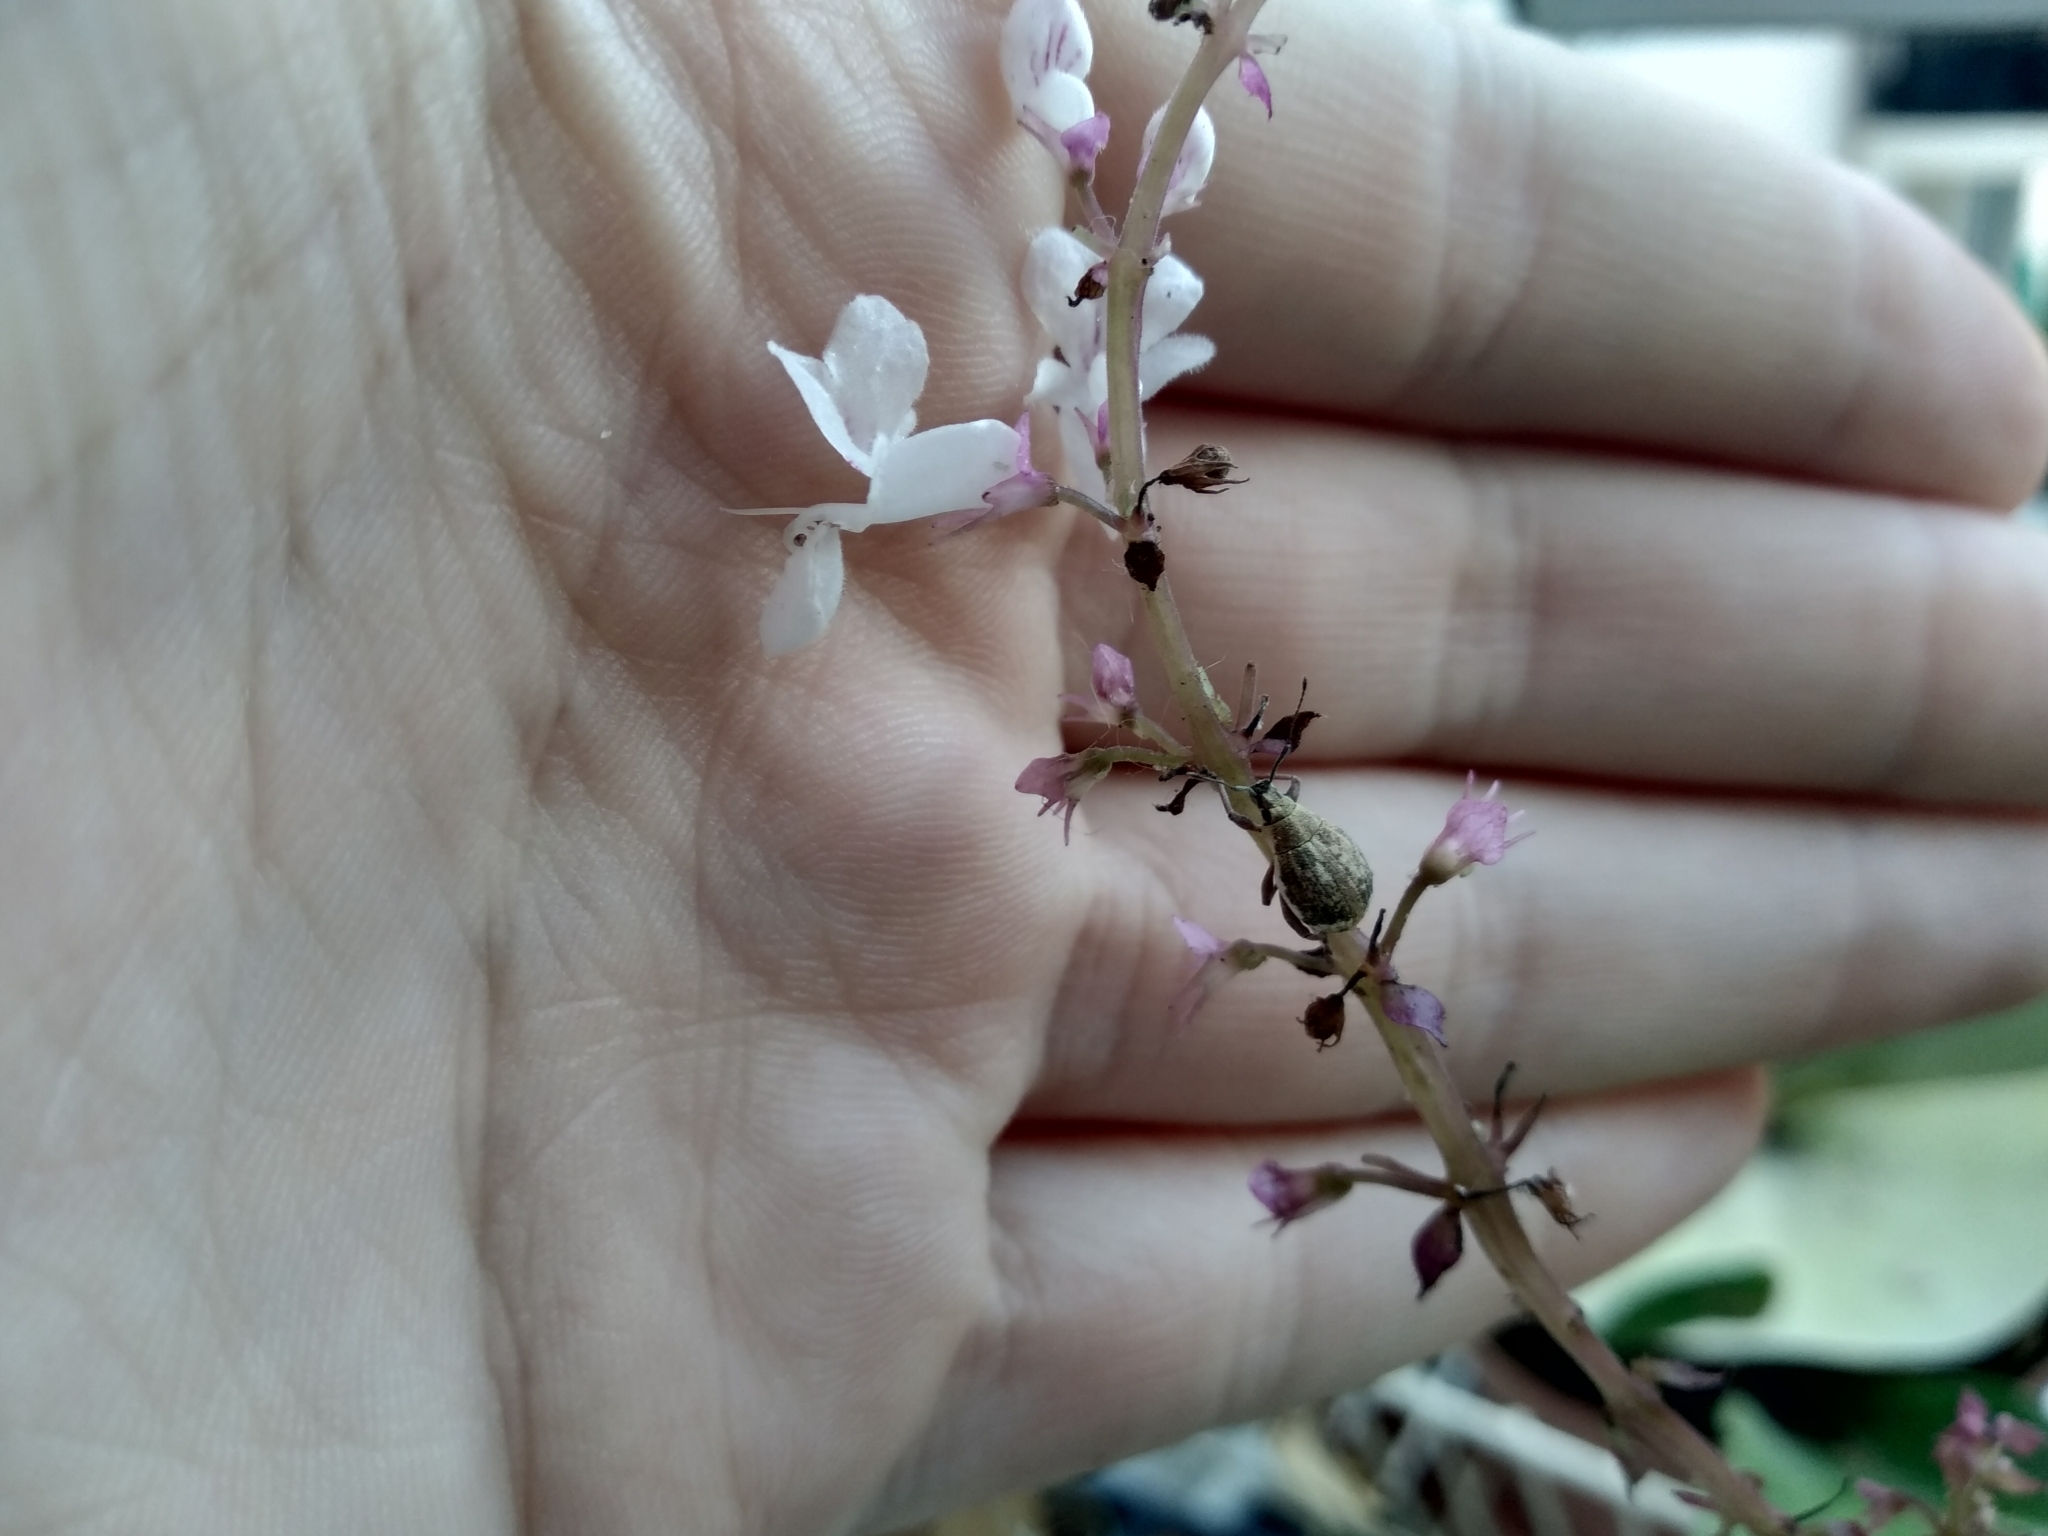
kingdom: Animalia
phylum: Arthropoda
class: Insecta
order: Coleoptera
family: Curculionidae
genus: Sciobius
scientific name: Sciobius pullus
